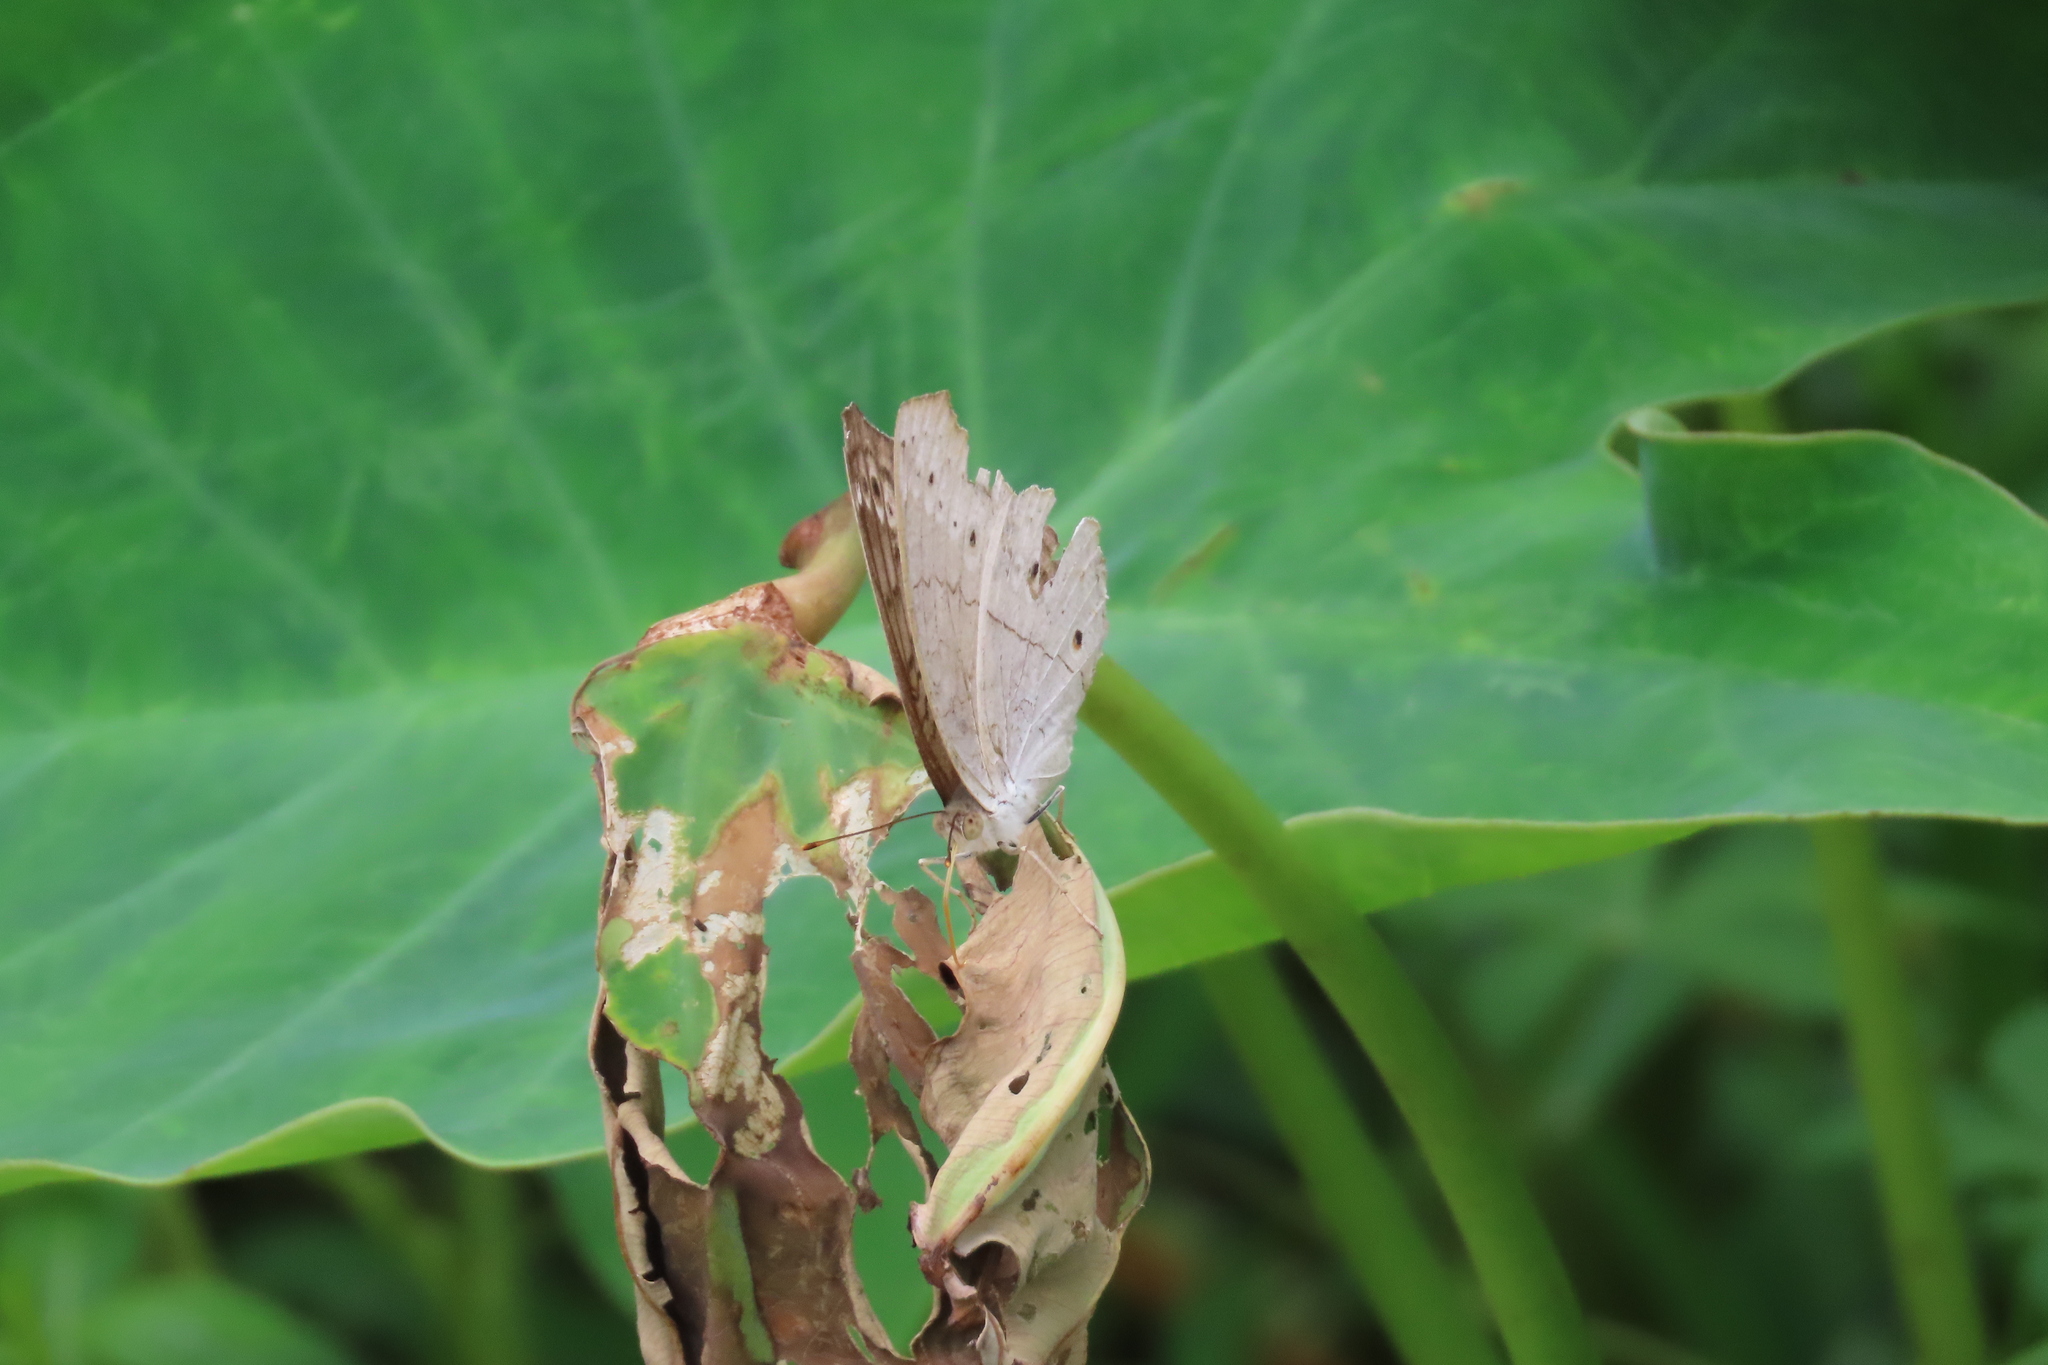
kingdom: Animalia
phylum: Arthropoda
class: Insecta
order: Lepidoptera
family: Nymphalidae
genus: Junonia
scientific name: Junonia atlites
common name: Grey pansy
